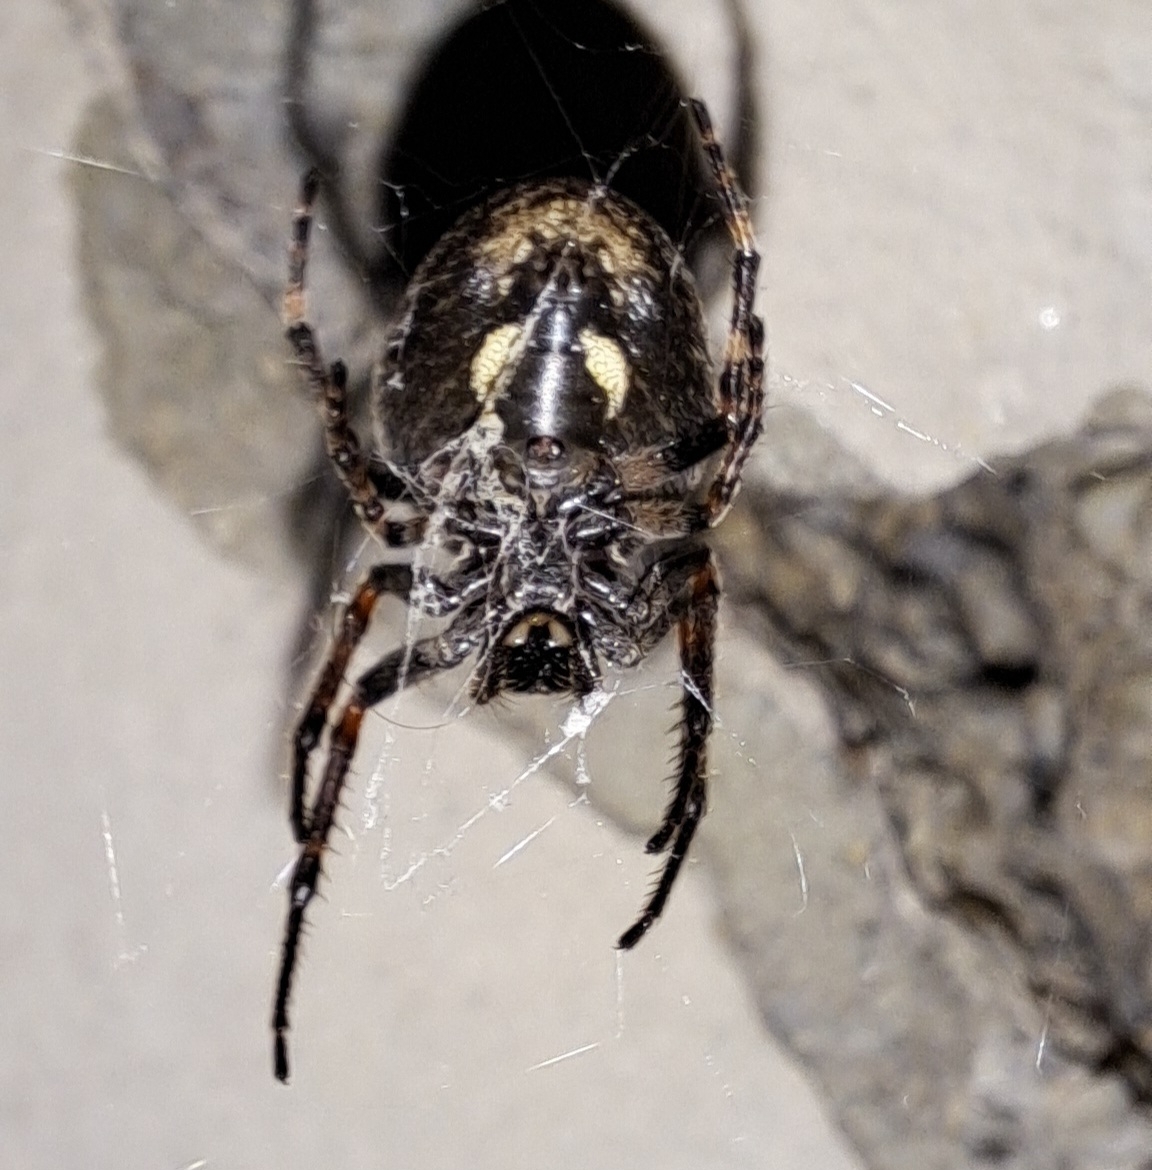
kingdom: Animalia
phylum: Arthropoda
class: Arachnida
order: Araneae
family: Araneidae
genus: Nuctenea
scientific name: Nuctenea umbratica
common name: Toad spider
